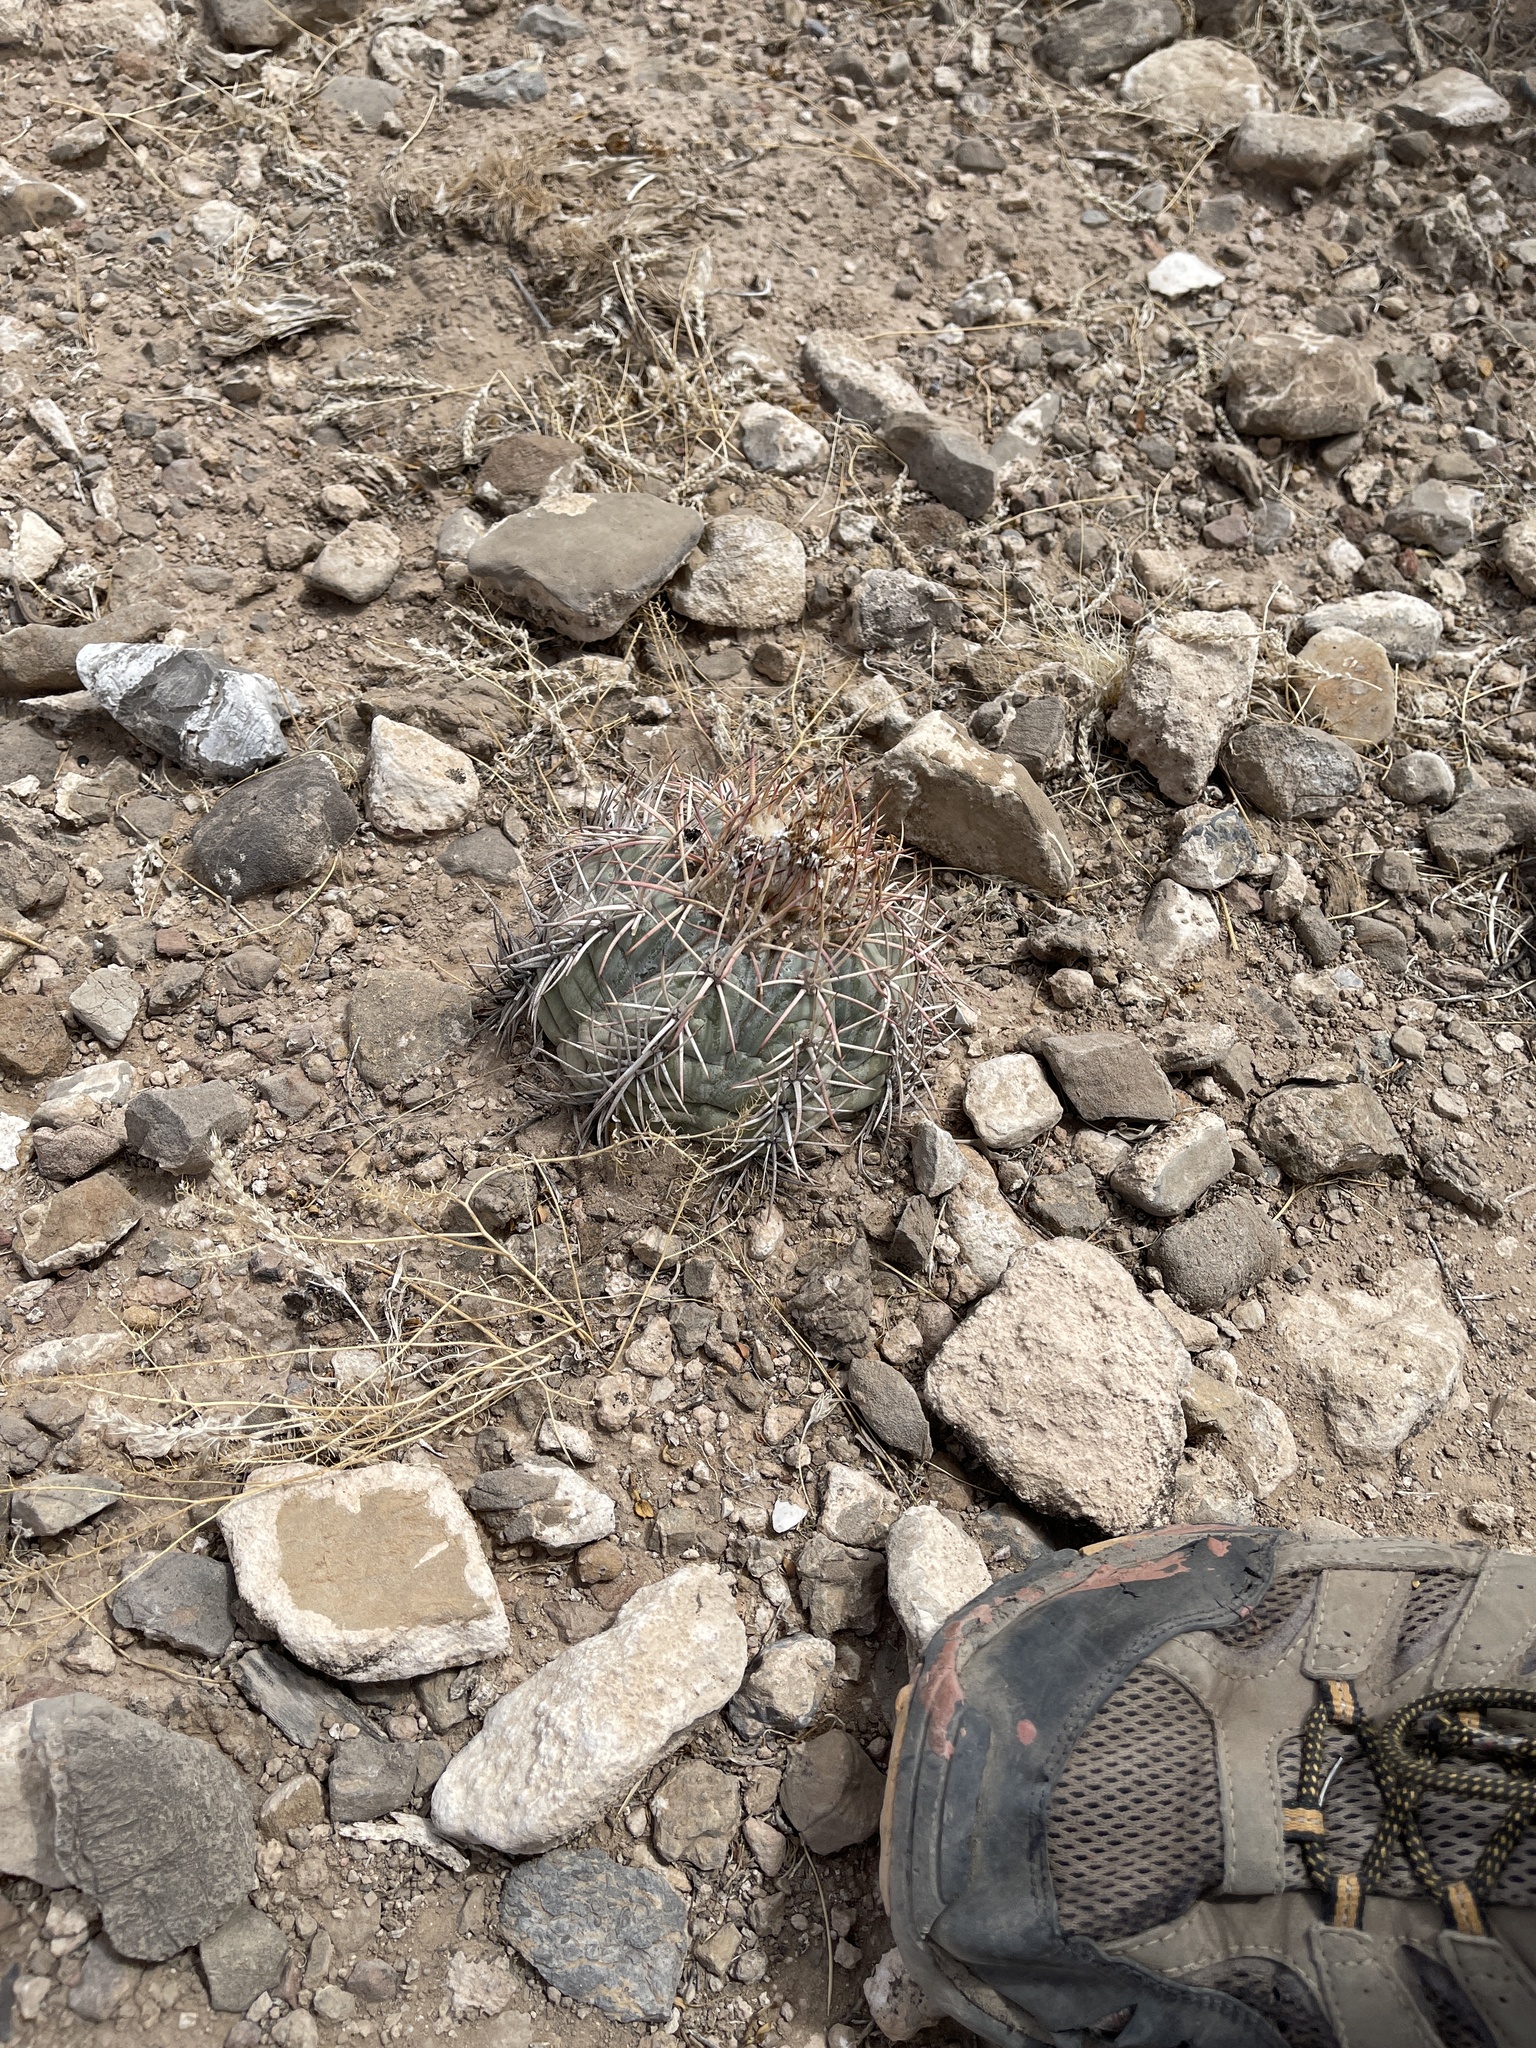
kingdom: Plantae
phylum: Tracheophyta
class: Magnoliopsida
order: Caryophyllales
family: Cactaceae
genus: Echinocactus
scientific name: Echinocactus horizonthalonius
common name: Devilshead
